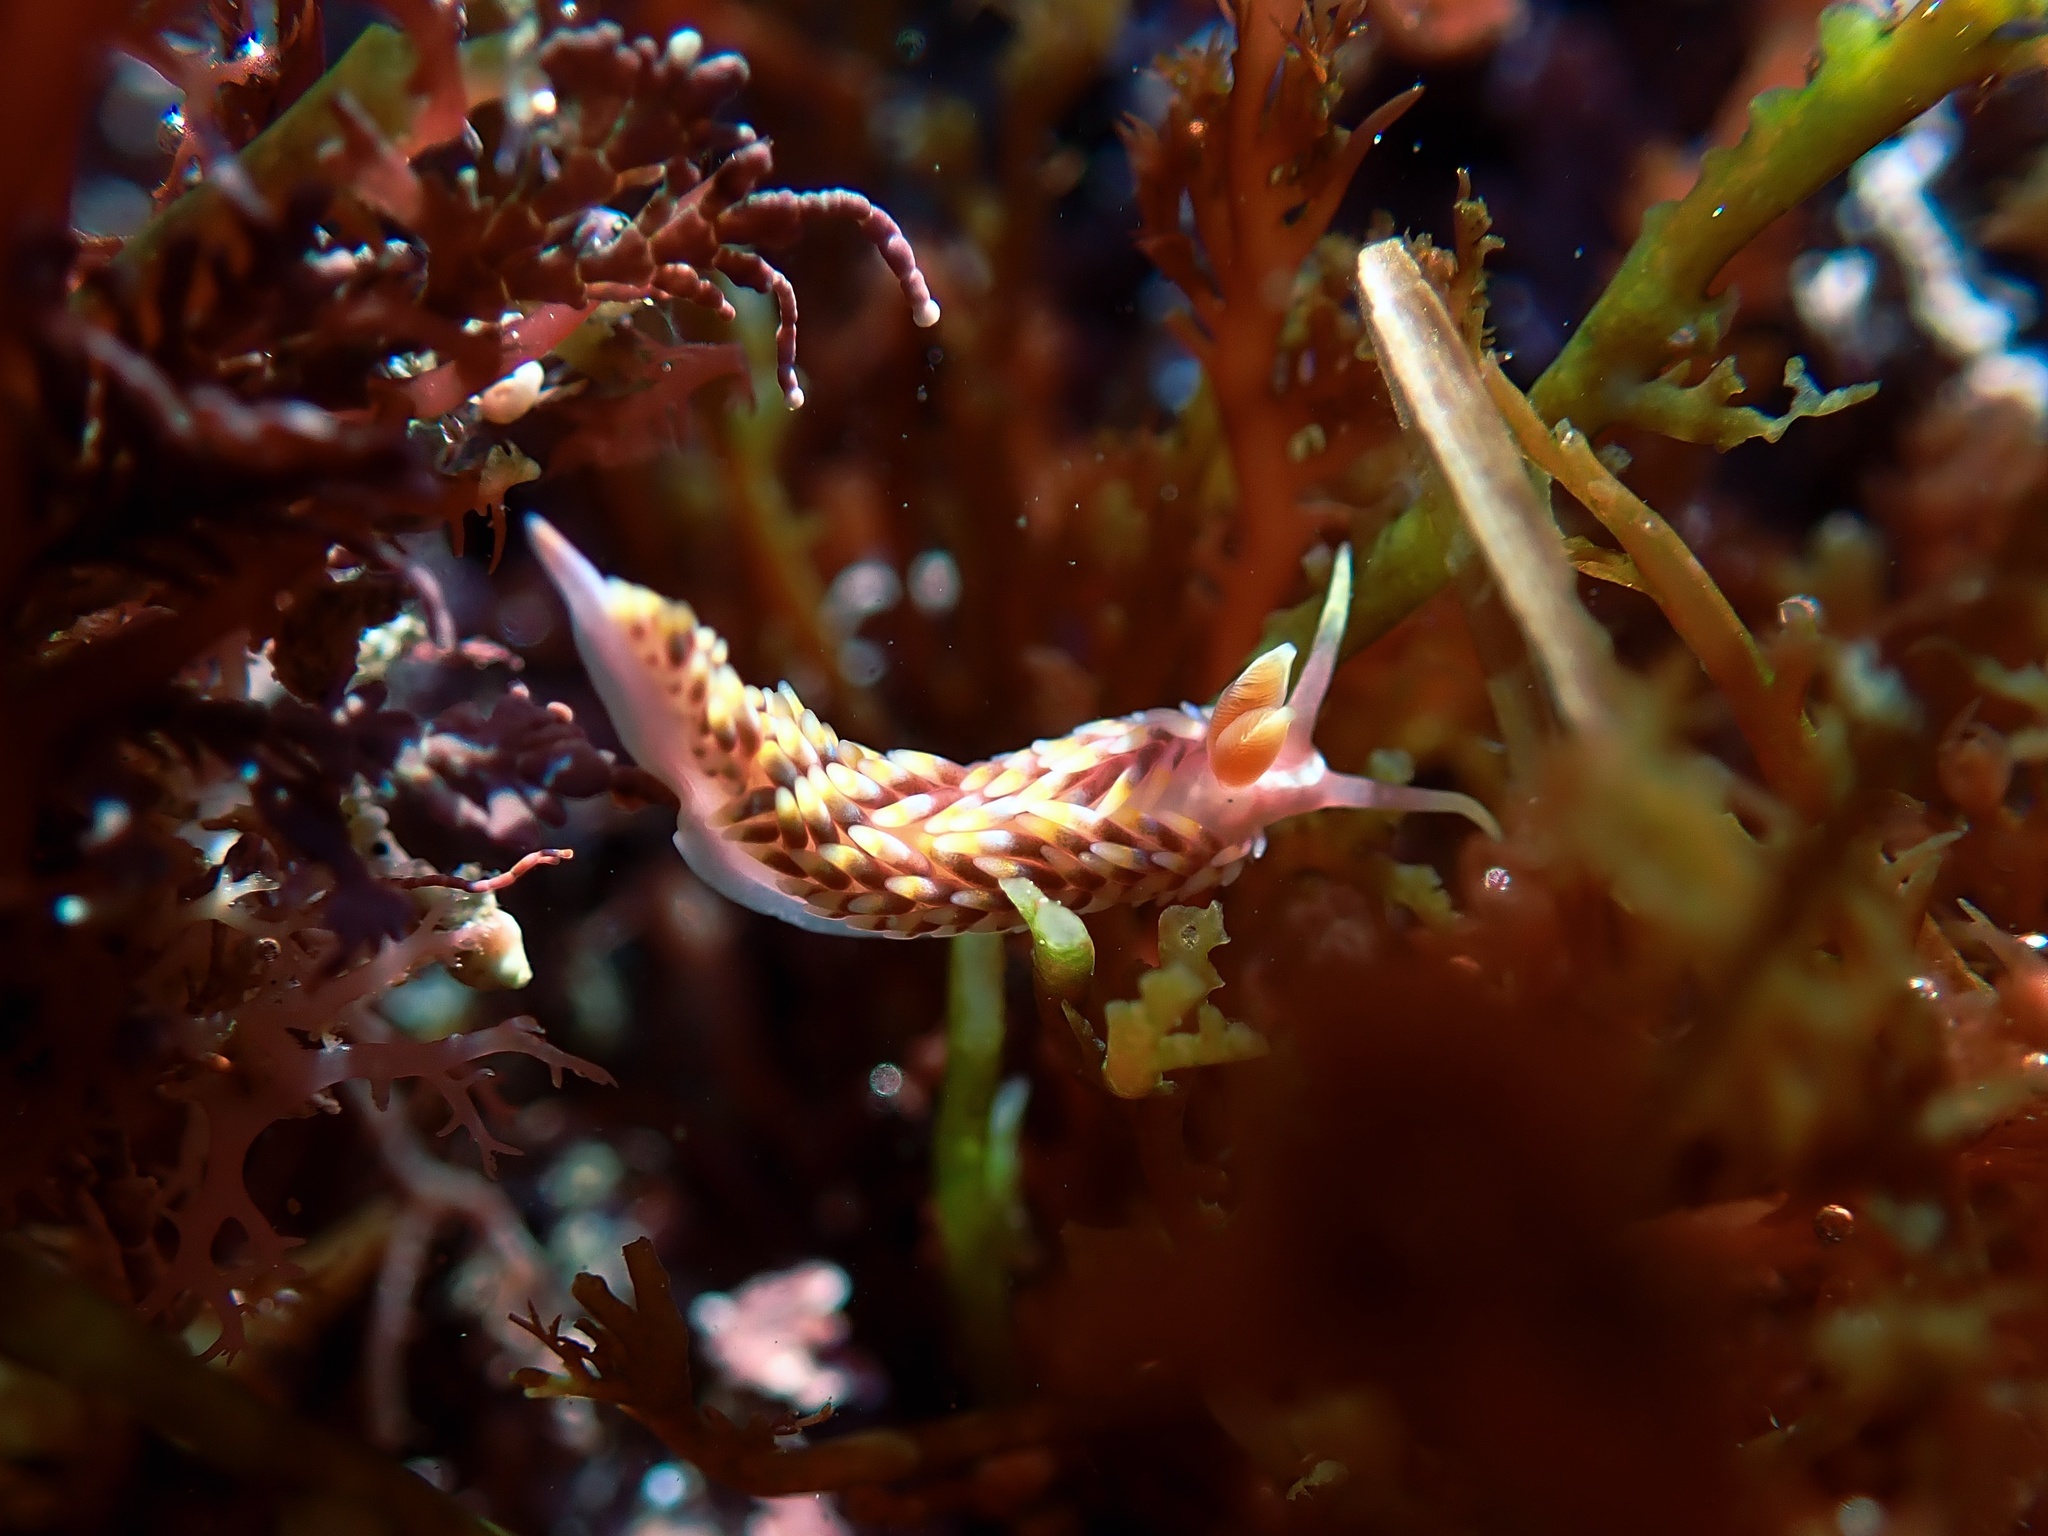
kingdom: Animalia
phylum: Mollusca
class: Gastropoda
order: Nudibranchia
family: Babakinidae
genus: Babakina
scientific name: Babakina festiva
